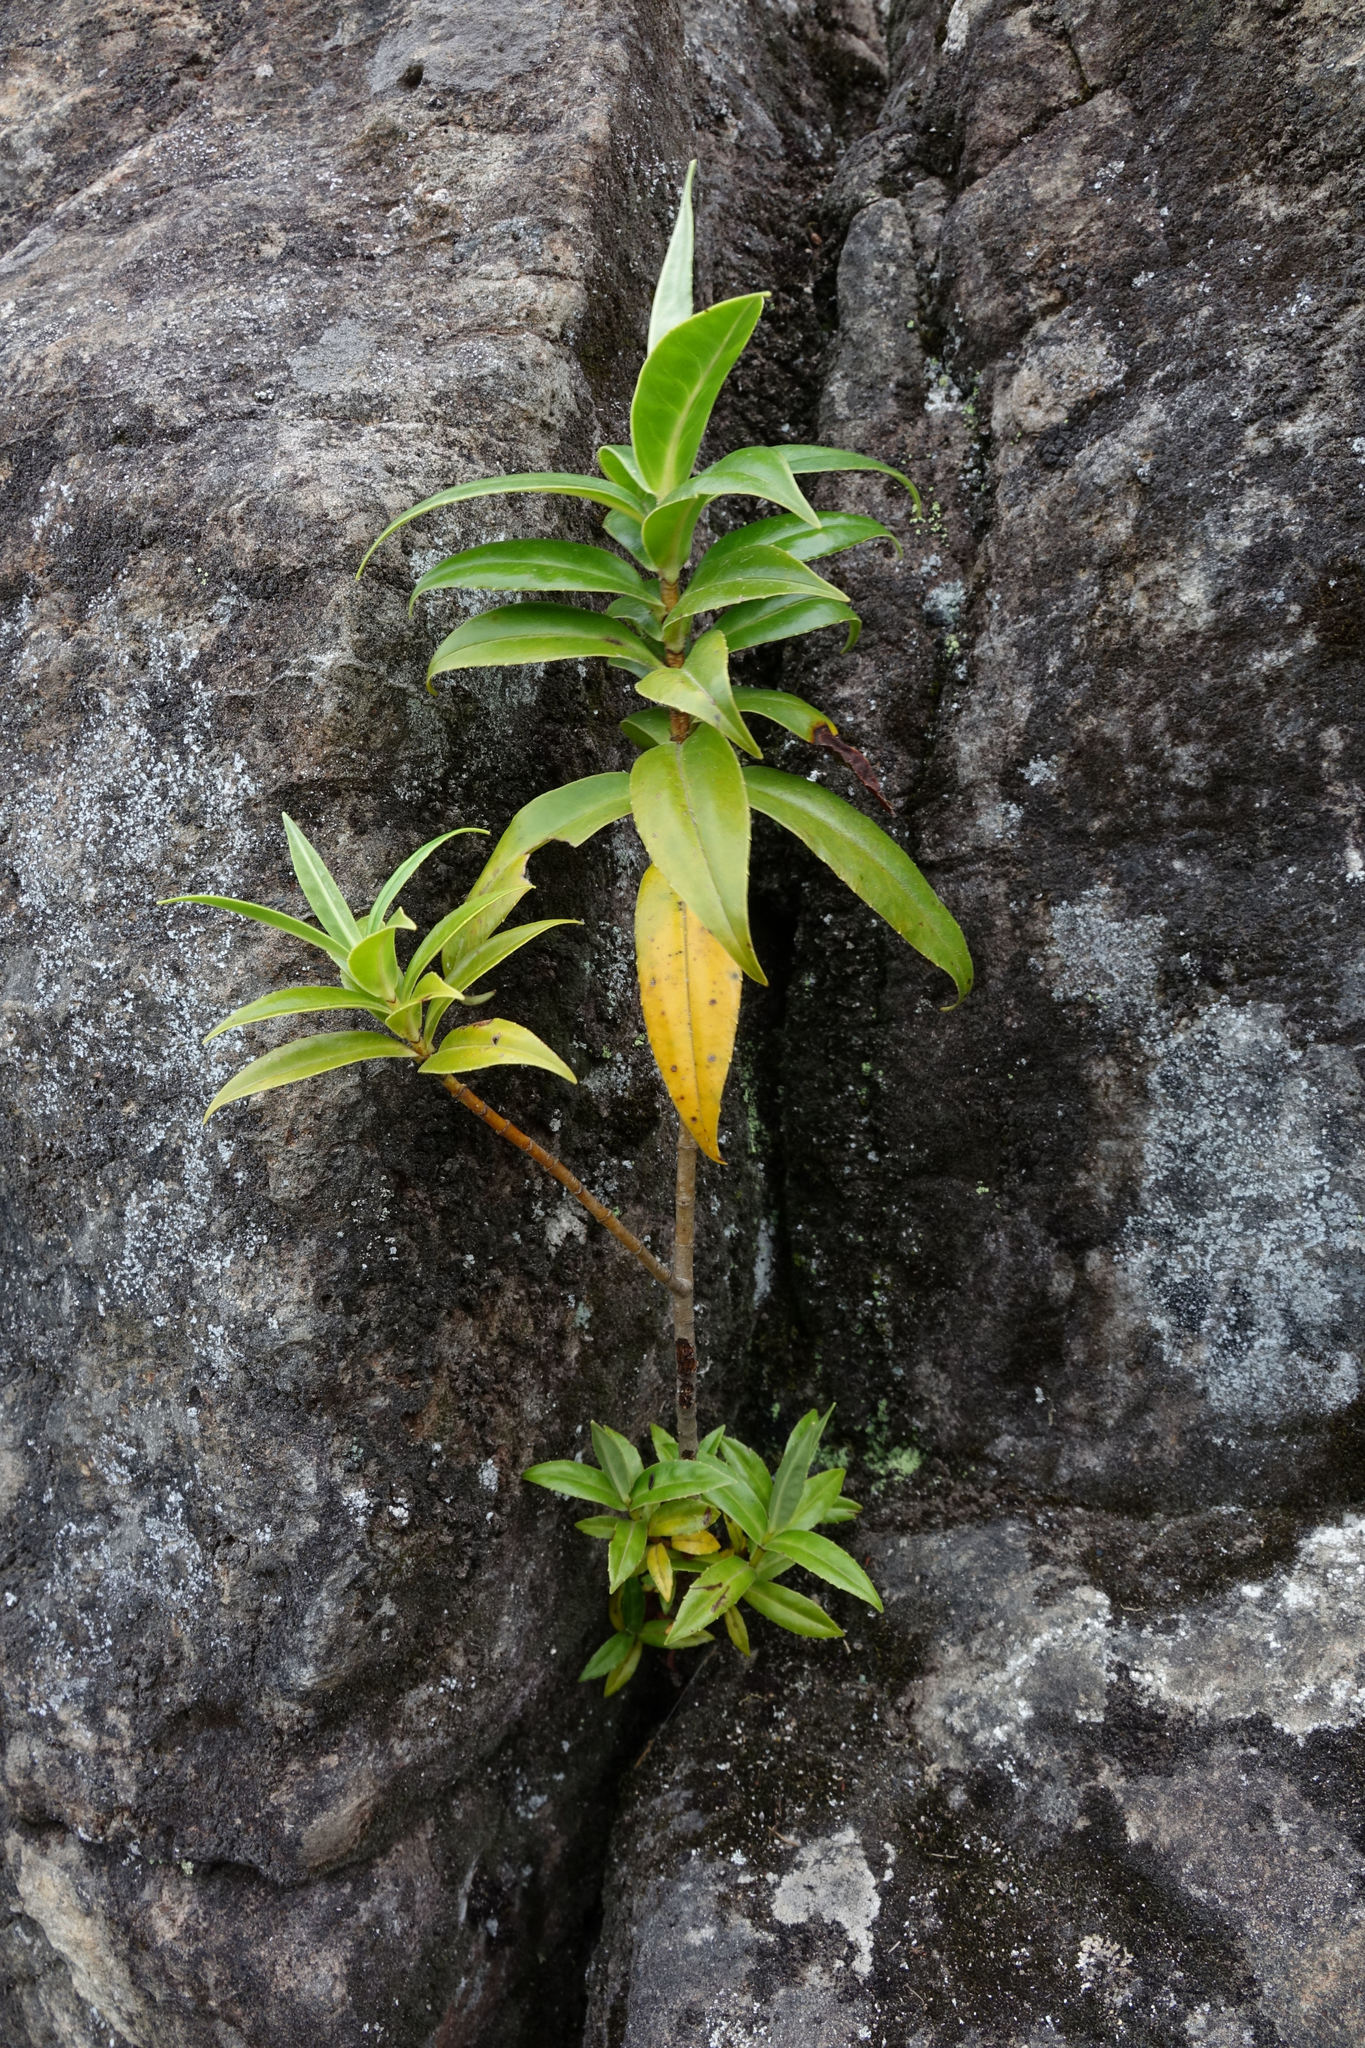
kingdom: Plantae
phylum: Tracheophyta
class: Magnoliopsida
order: Lamiales
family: Plantaginaceae
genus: Veronica
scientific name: Veronica salicifolia
